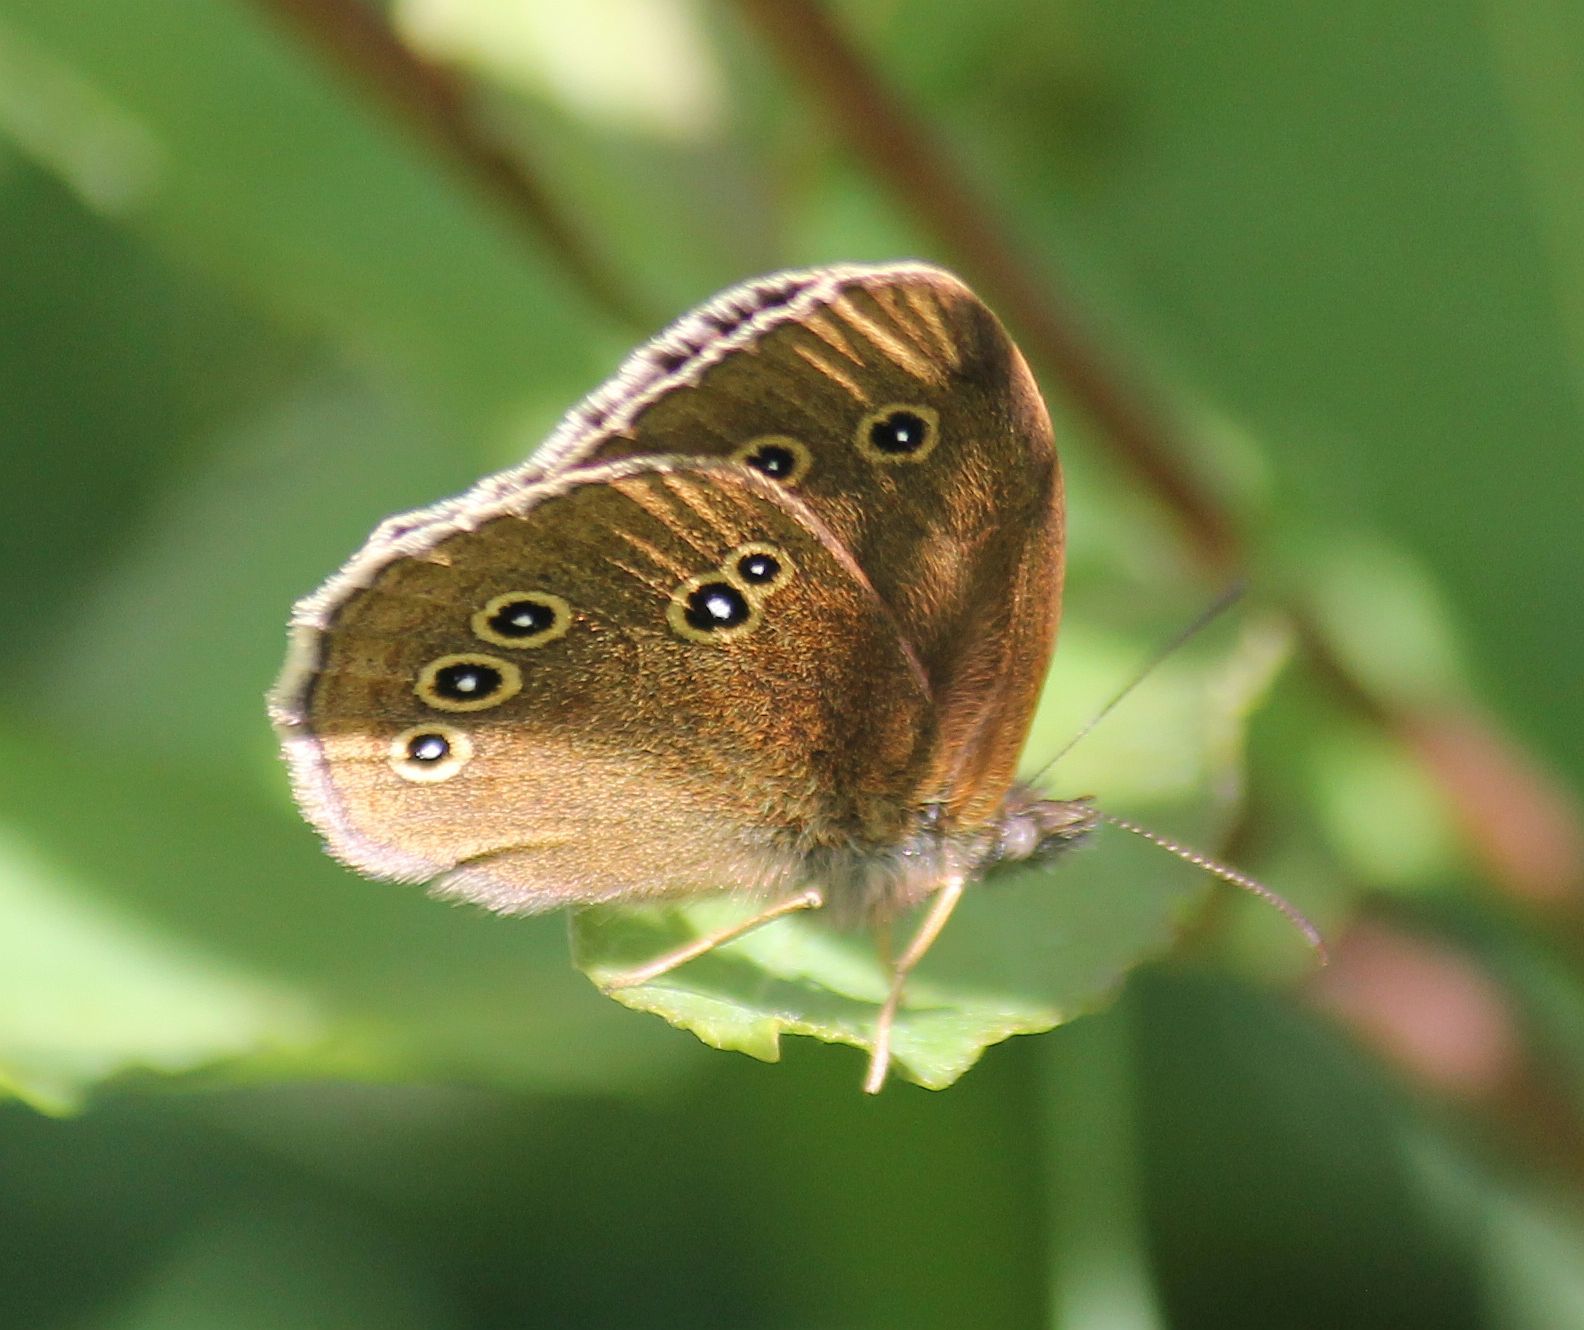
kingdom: Animalia
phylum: Arthropoda
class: Insecta
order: Lepidoptera
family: Nymphalidae
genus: Aphantopus
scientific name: Aphantopus hyperantus
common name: Ringlet
